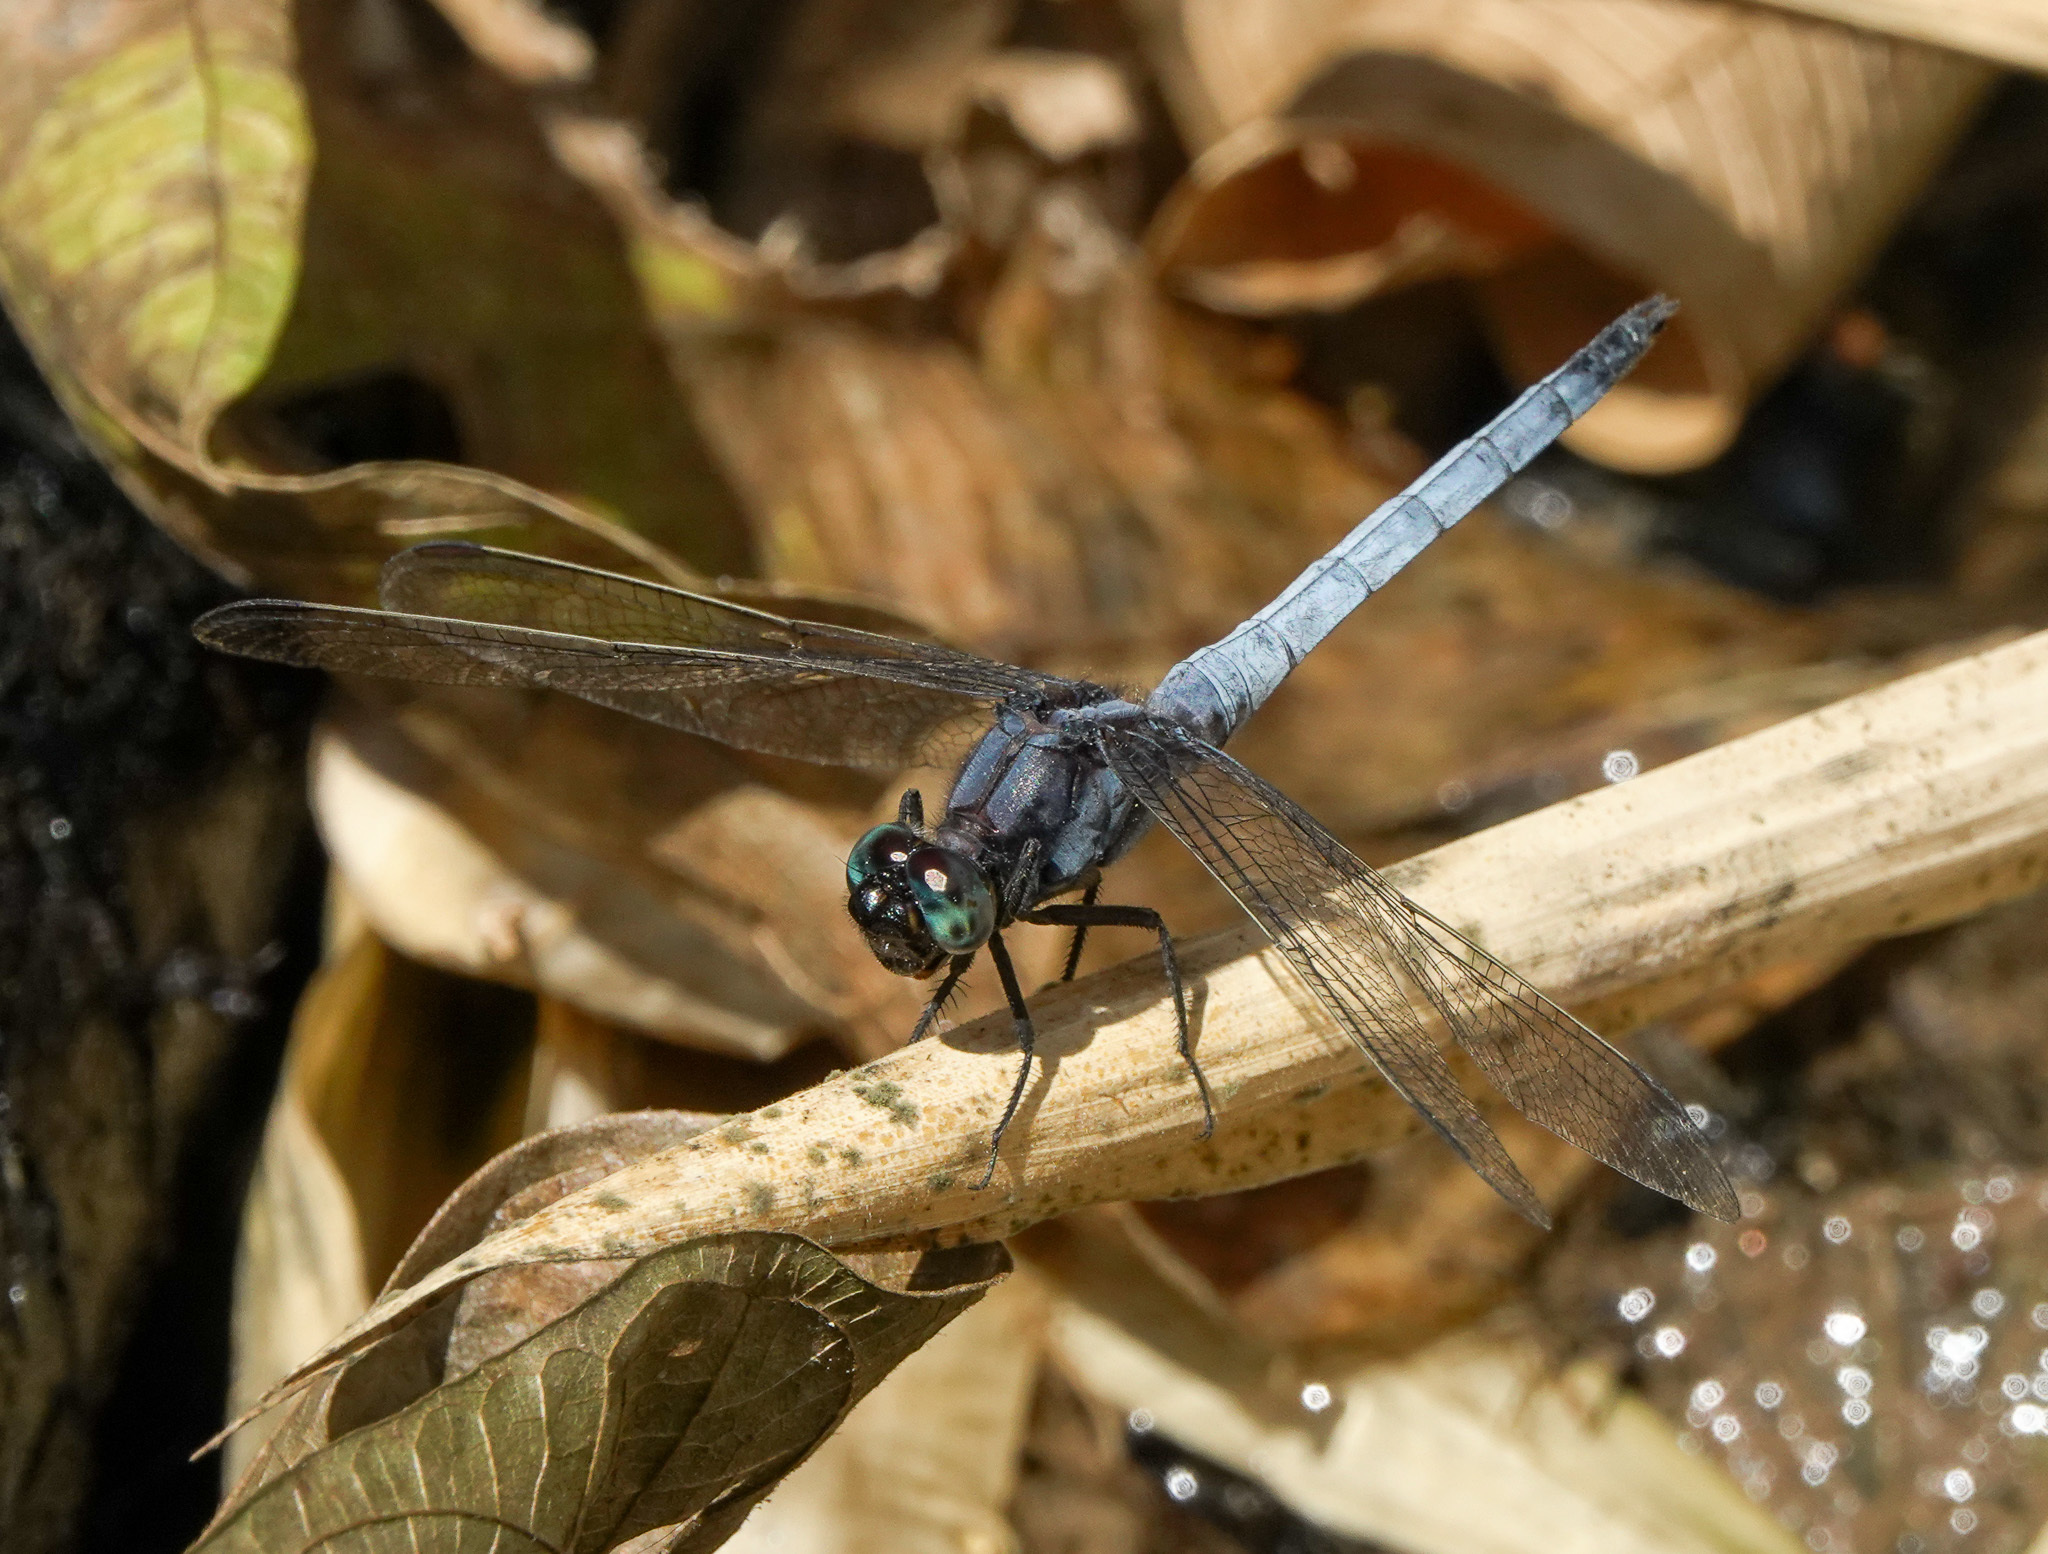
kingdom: Animalia
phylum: Arthropoda
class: Insecta
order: Odonata
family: Libellulidae
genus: Orthetrum
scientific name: Orthetrum glaucum
